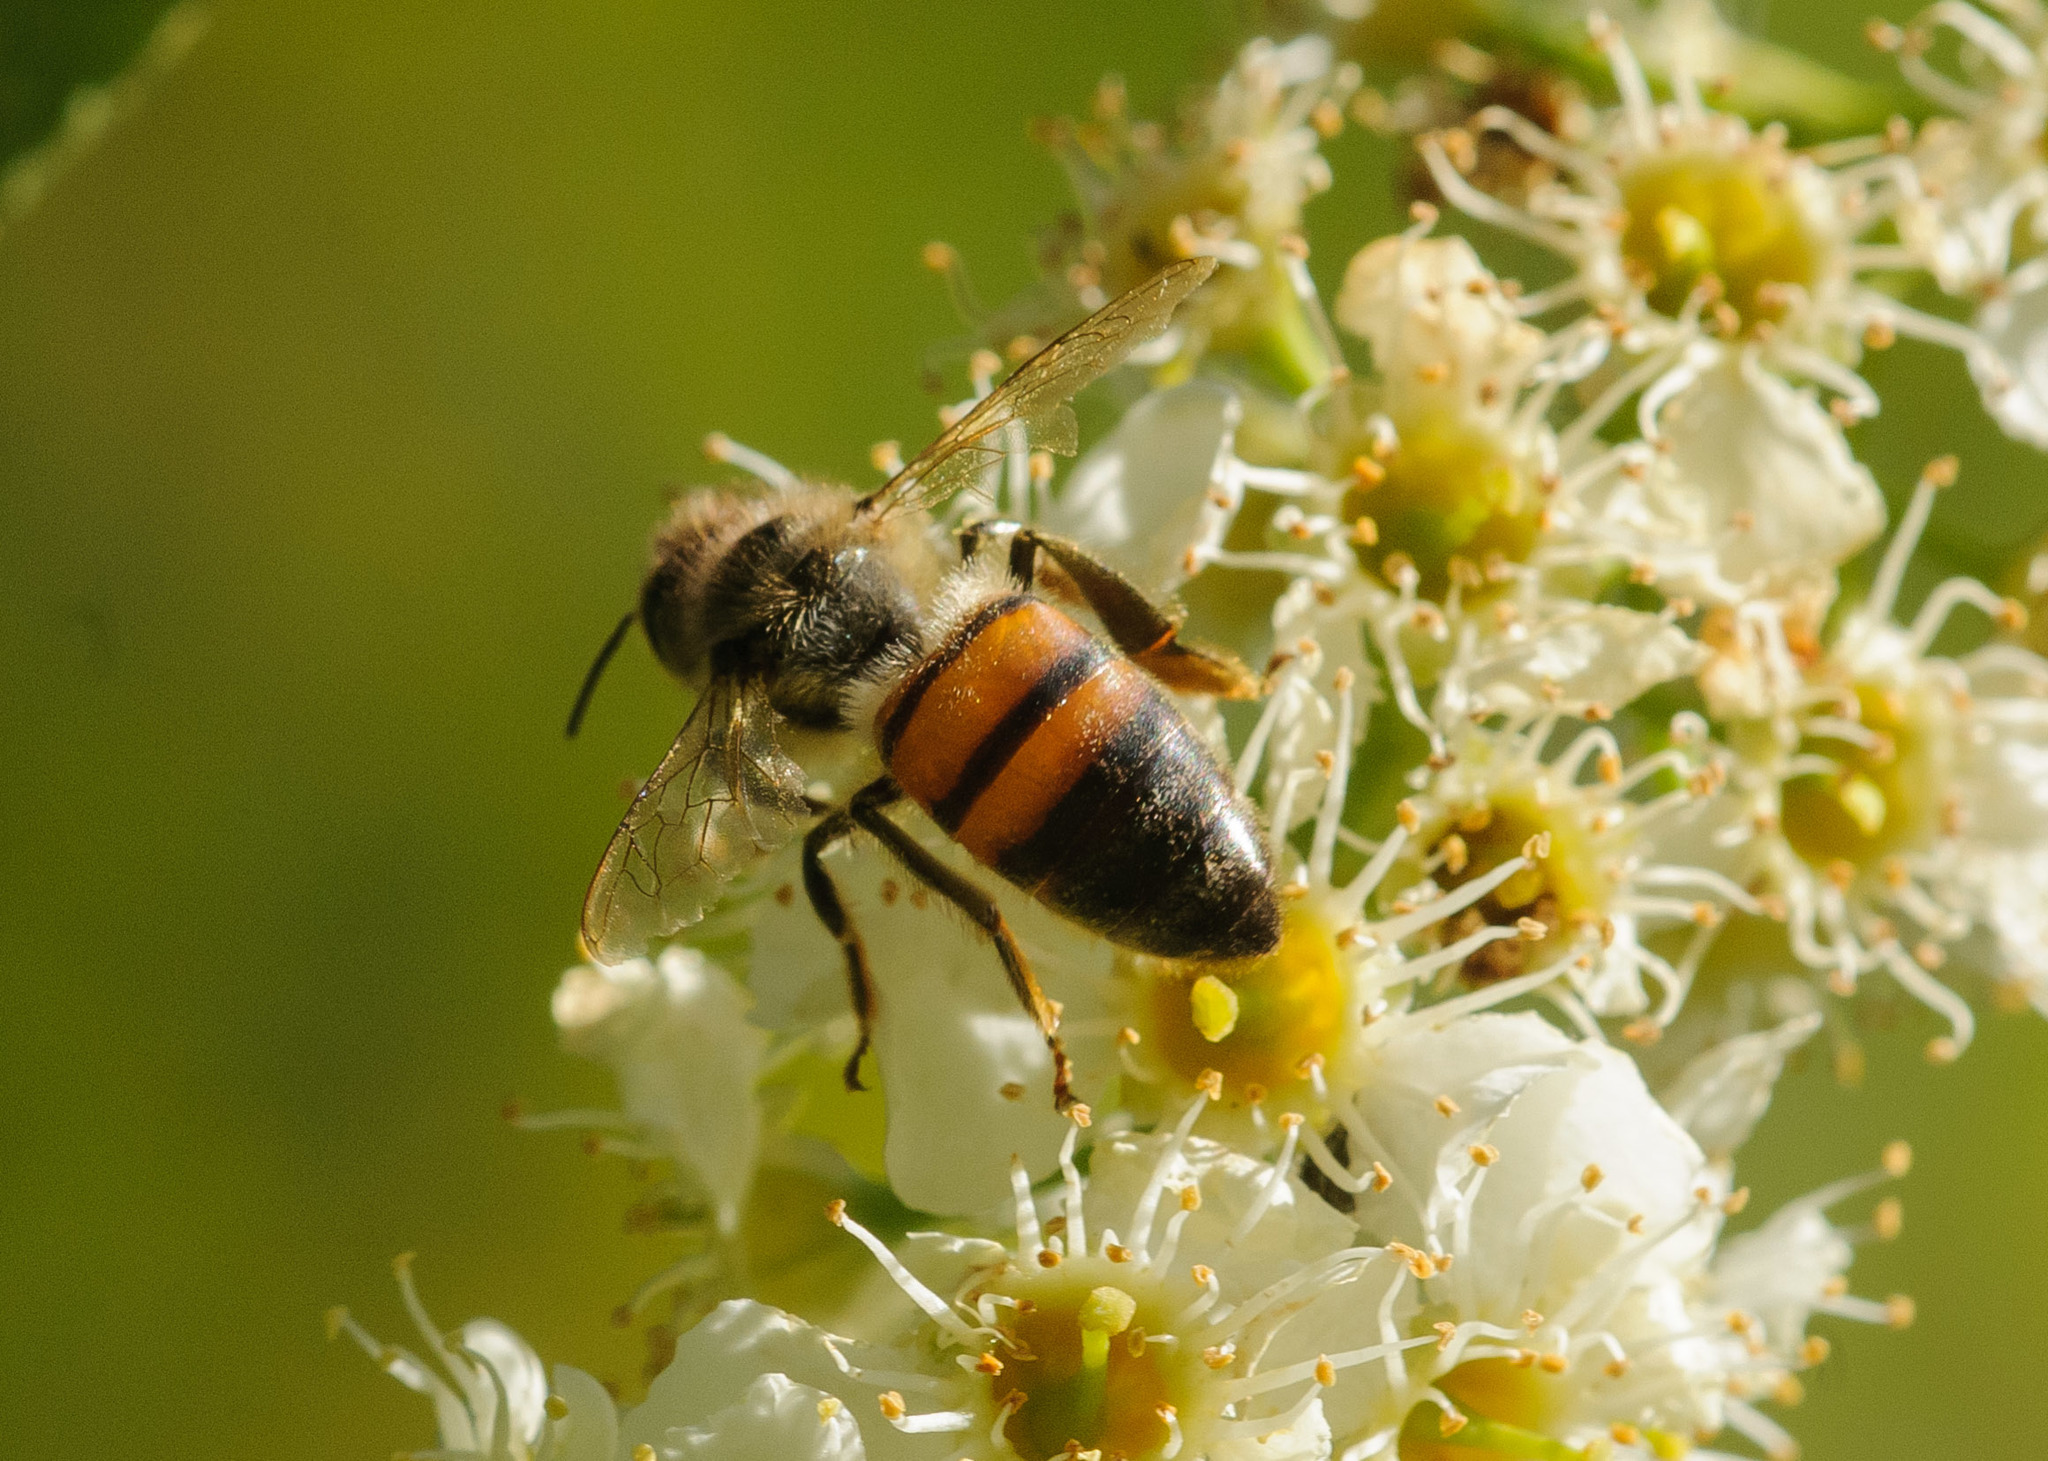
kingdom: Animalia
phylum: Arthropoda
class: Insecta
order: Hymenoptera
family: Apidae
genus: Apis
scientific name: Apis mellifera
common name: Honey bee
